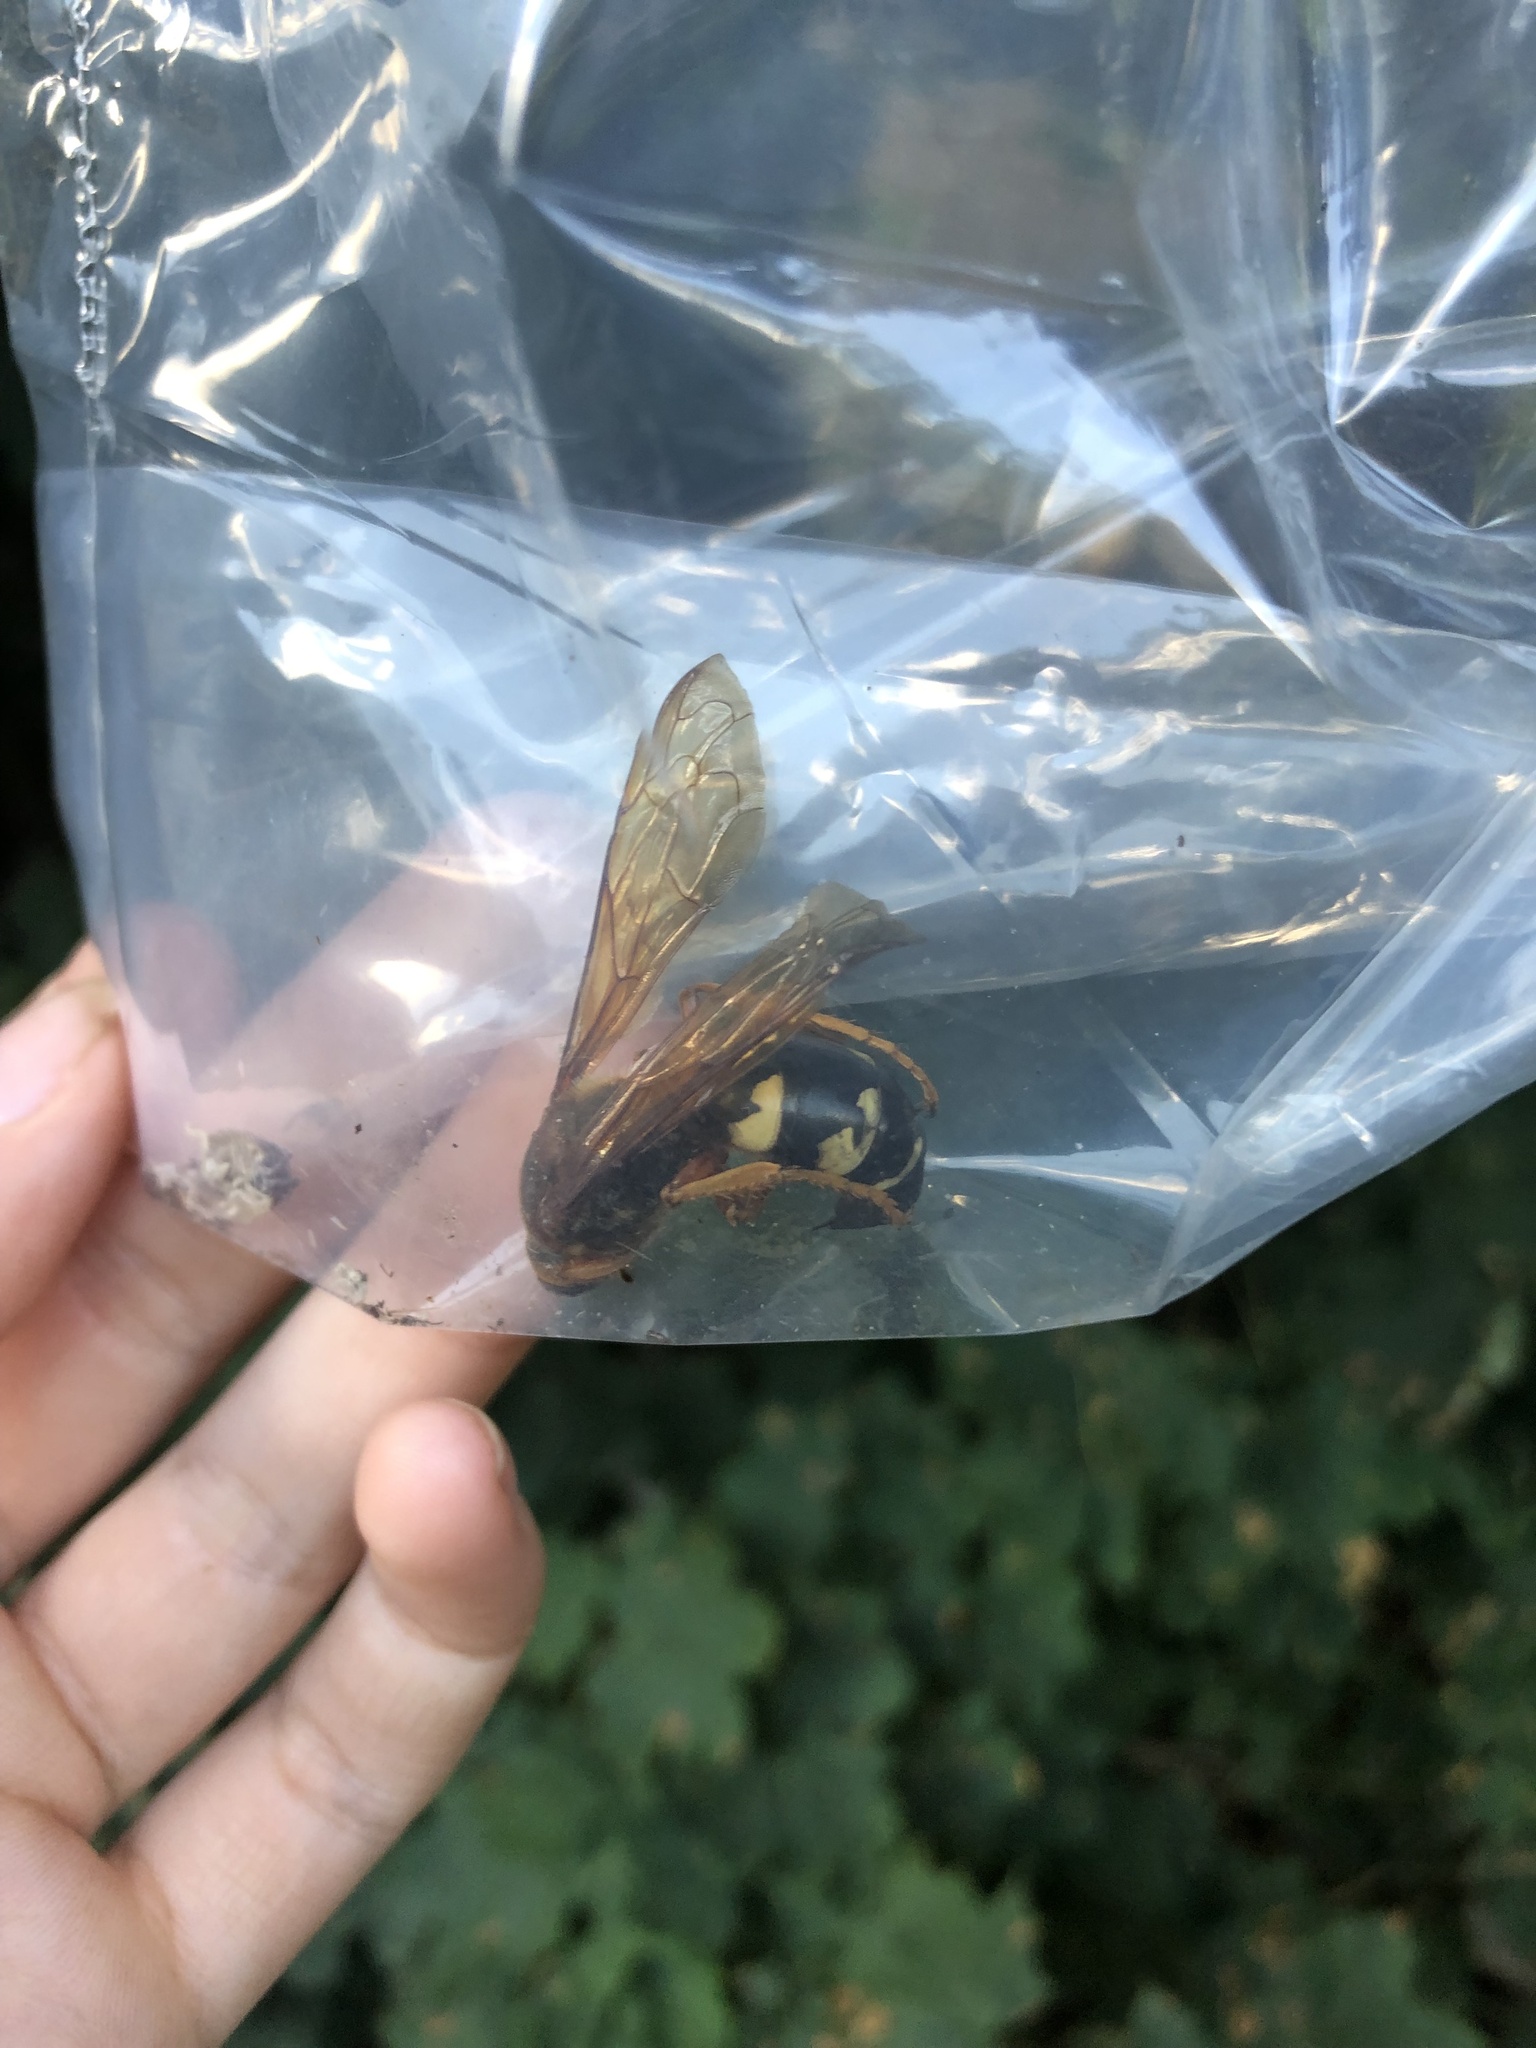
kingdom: Animalia
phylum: Arthropoda
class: Insecta
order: Hymenoptera
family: Crabronidae
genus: Sphecius
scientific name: Sphecius speciosus
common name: Cicada killer
